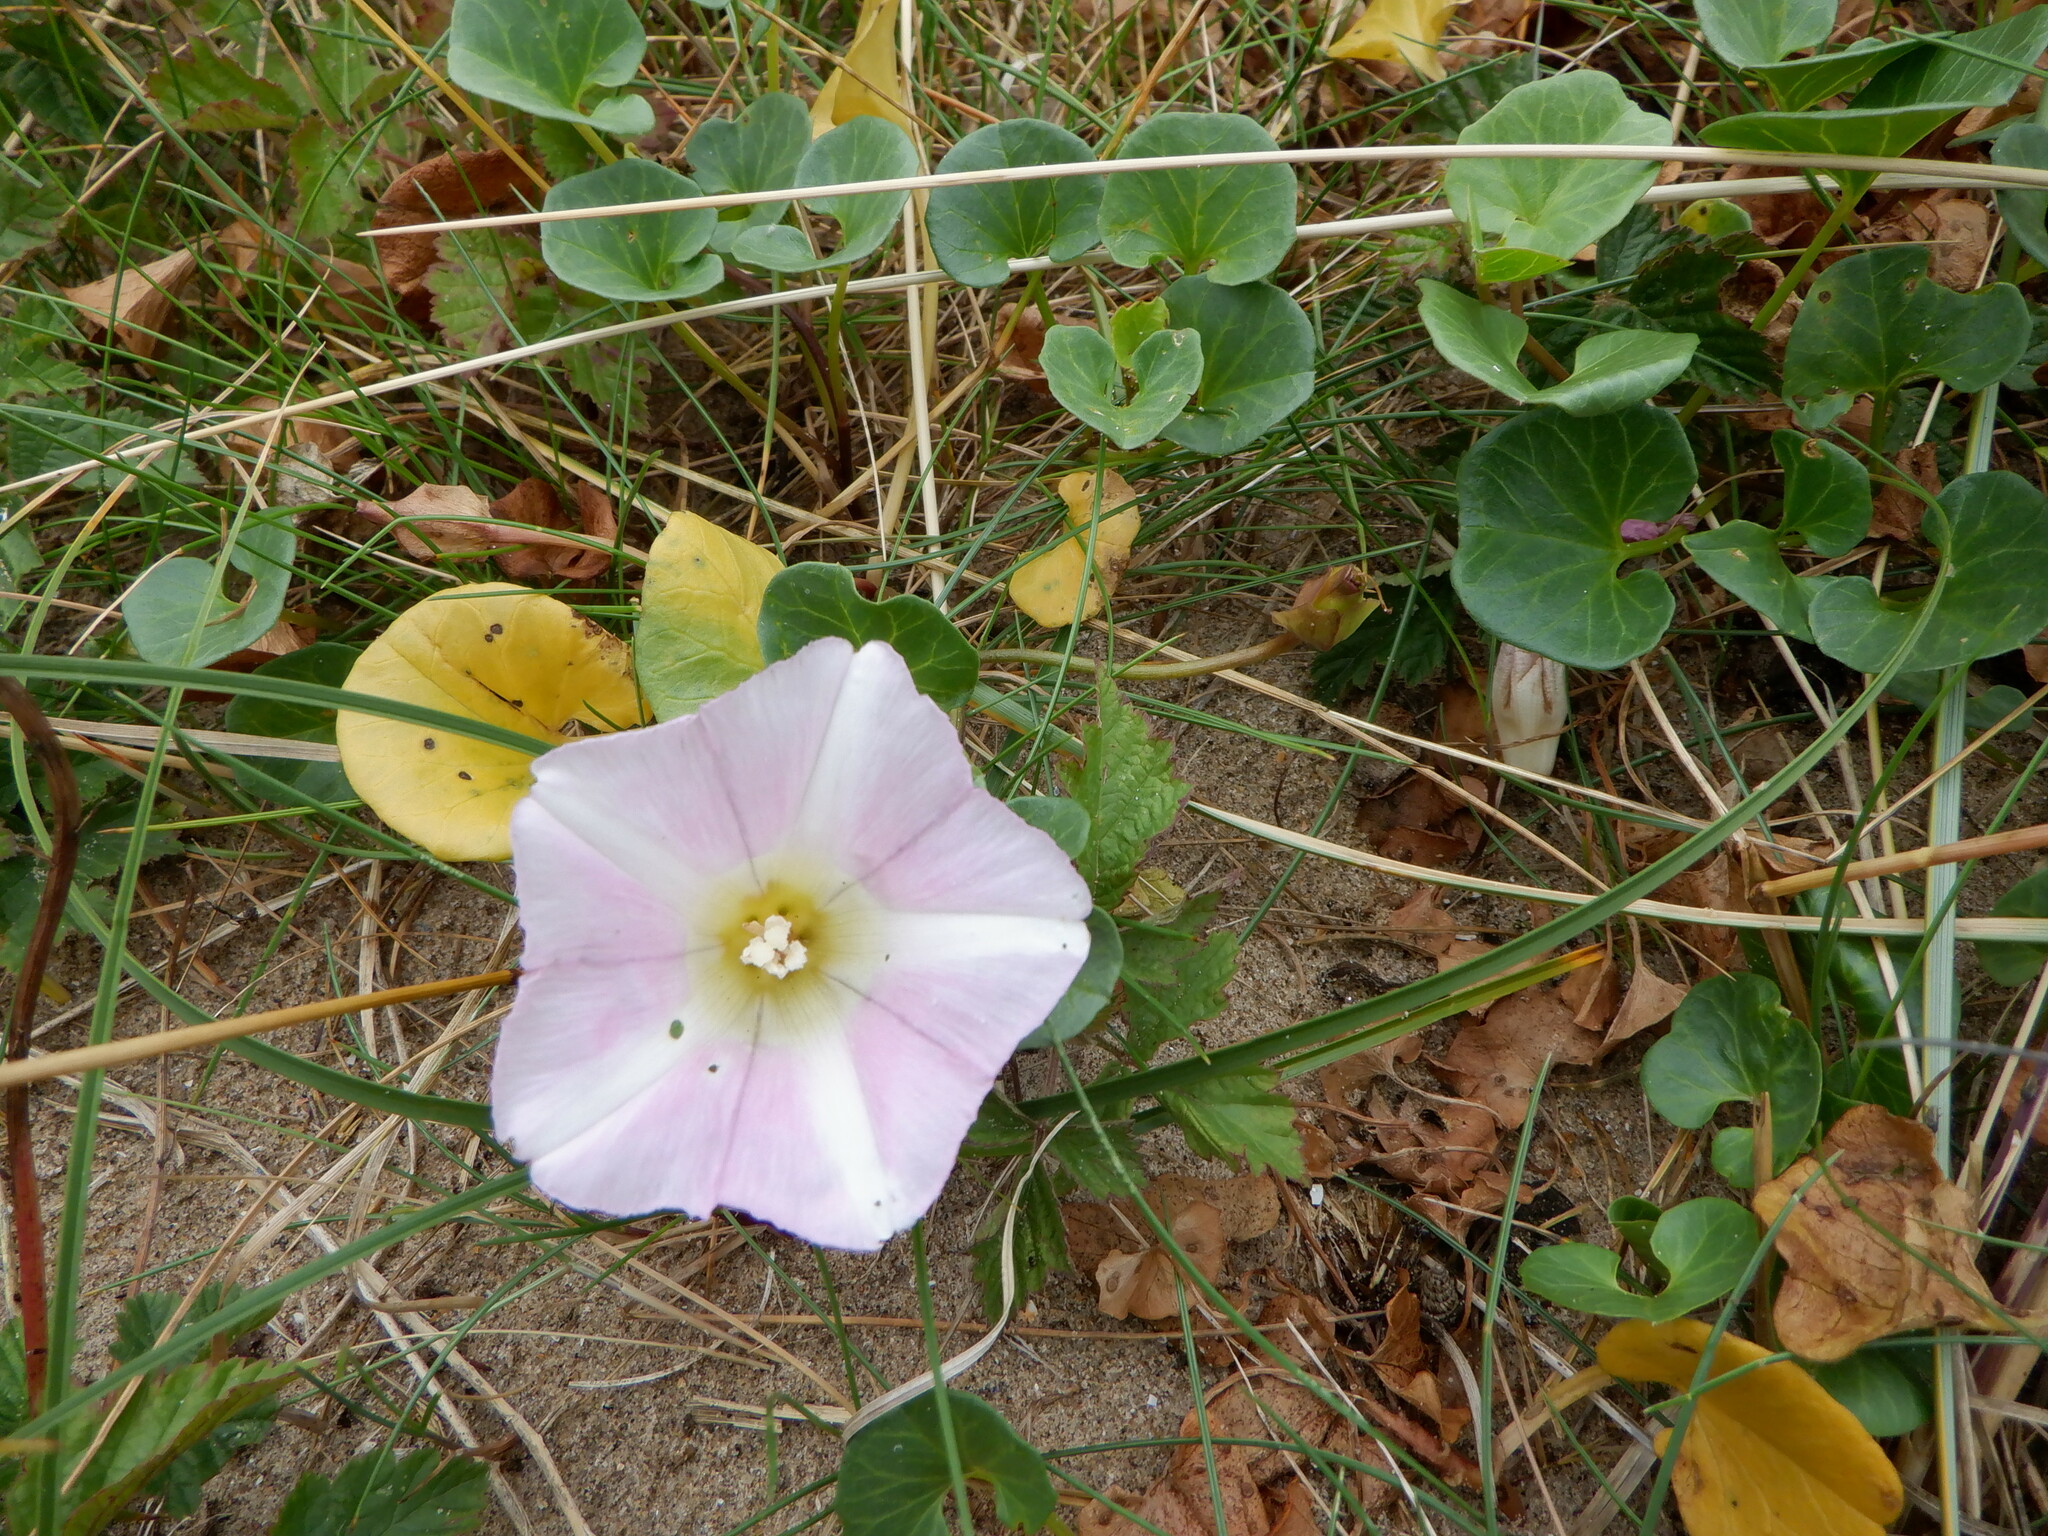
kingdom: Plantae
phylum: Tracheophyta
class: Magnoliopsida
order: Solanales
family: Convolvulaceae
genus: Calystegia
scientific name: Calystegia soldanella
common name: Sea bindweed
